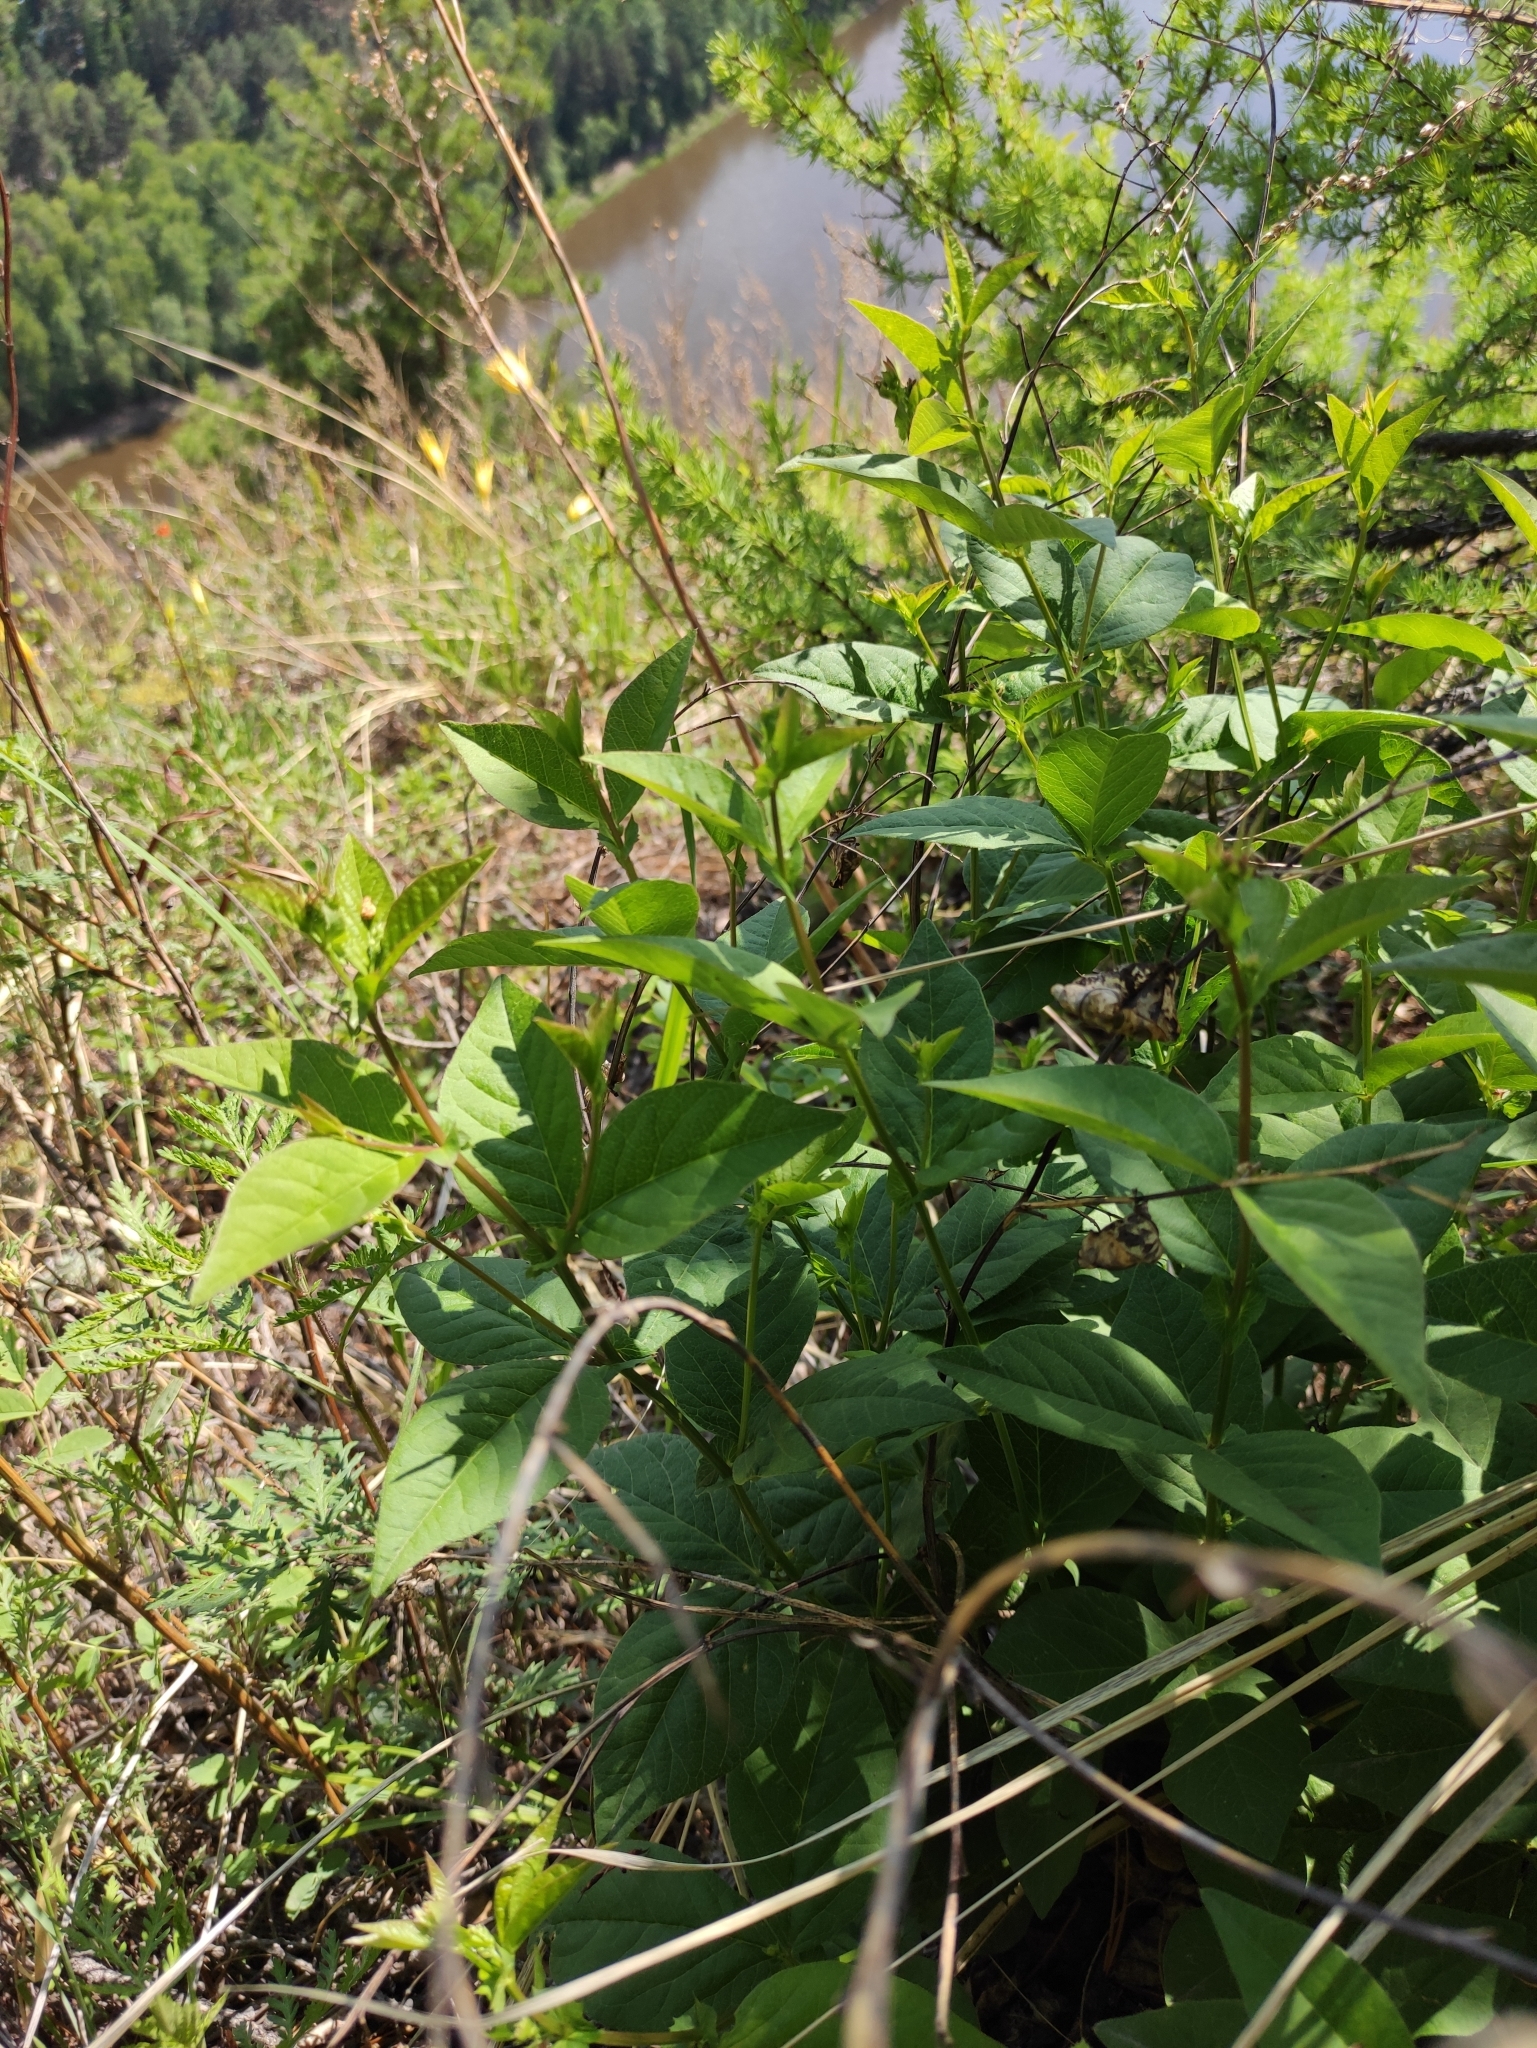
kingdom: Plantae
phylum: Tracheophyta
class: Magnoliopsida
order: Fabales
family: Fabaceae
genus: Vicia
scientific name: Vicia unijuga
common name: Two-leaf vetch
